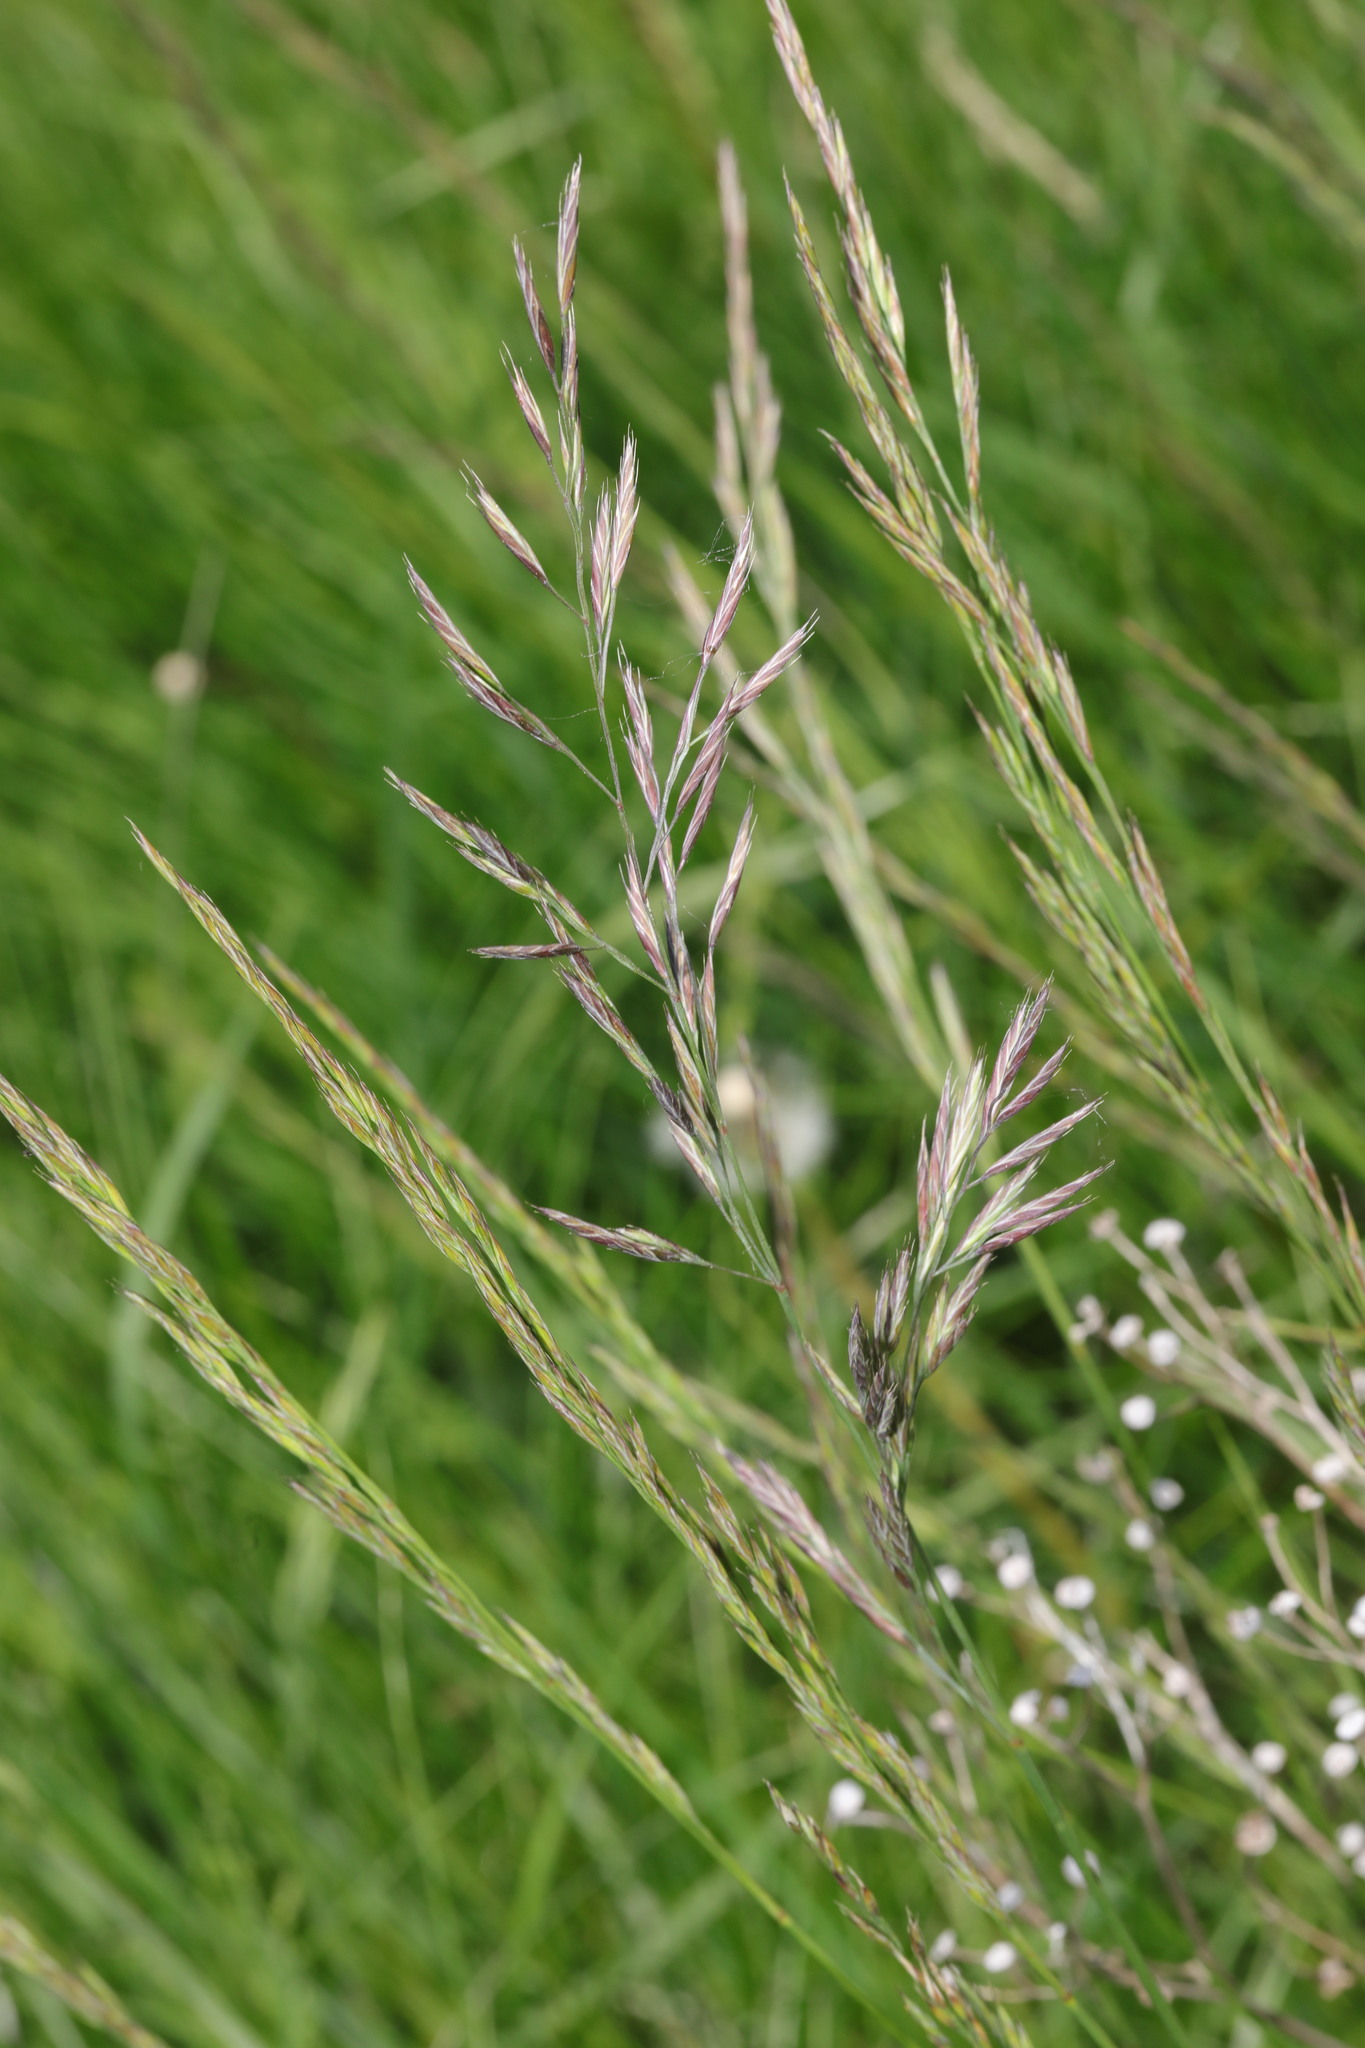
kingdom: Plantae
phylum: Tracheophyta
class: Liliopsida
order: Poales
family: Poaceae
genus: Festuca
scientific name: Festuca rubra
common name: Red fescue
